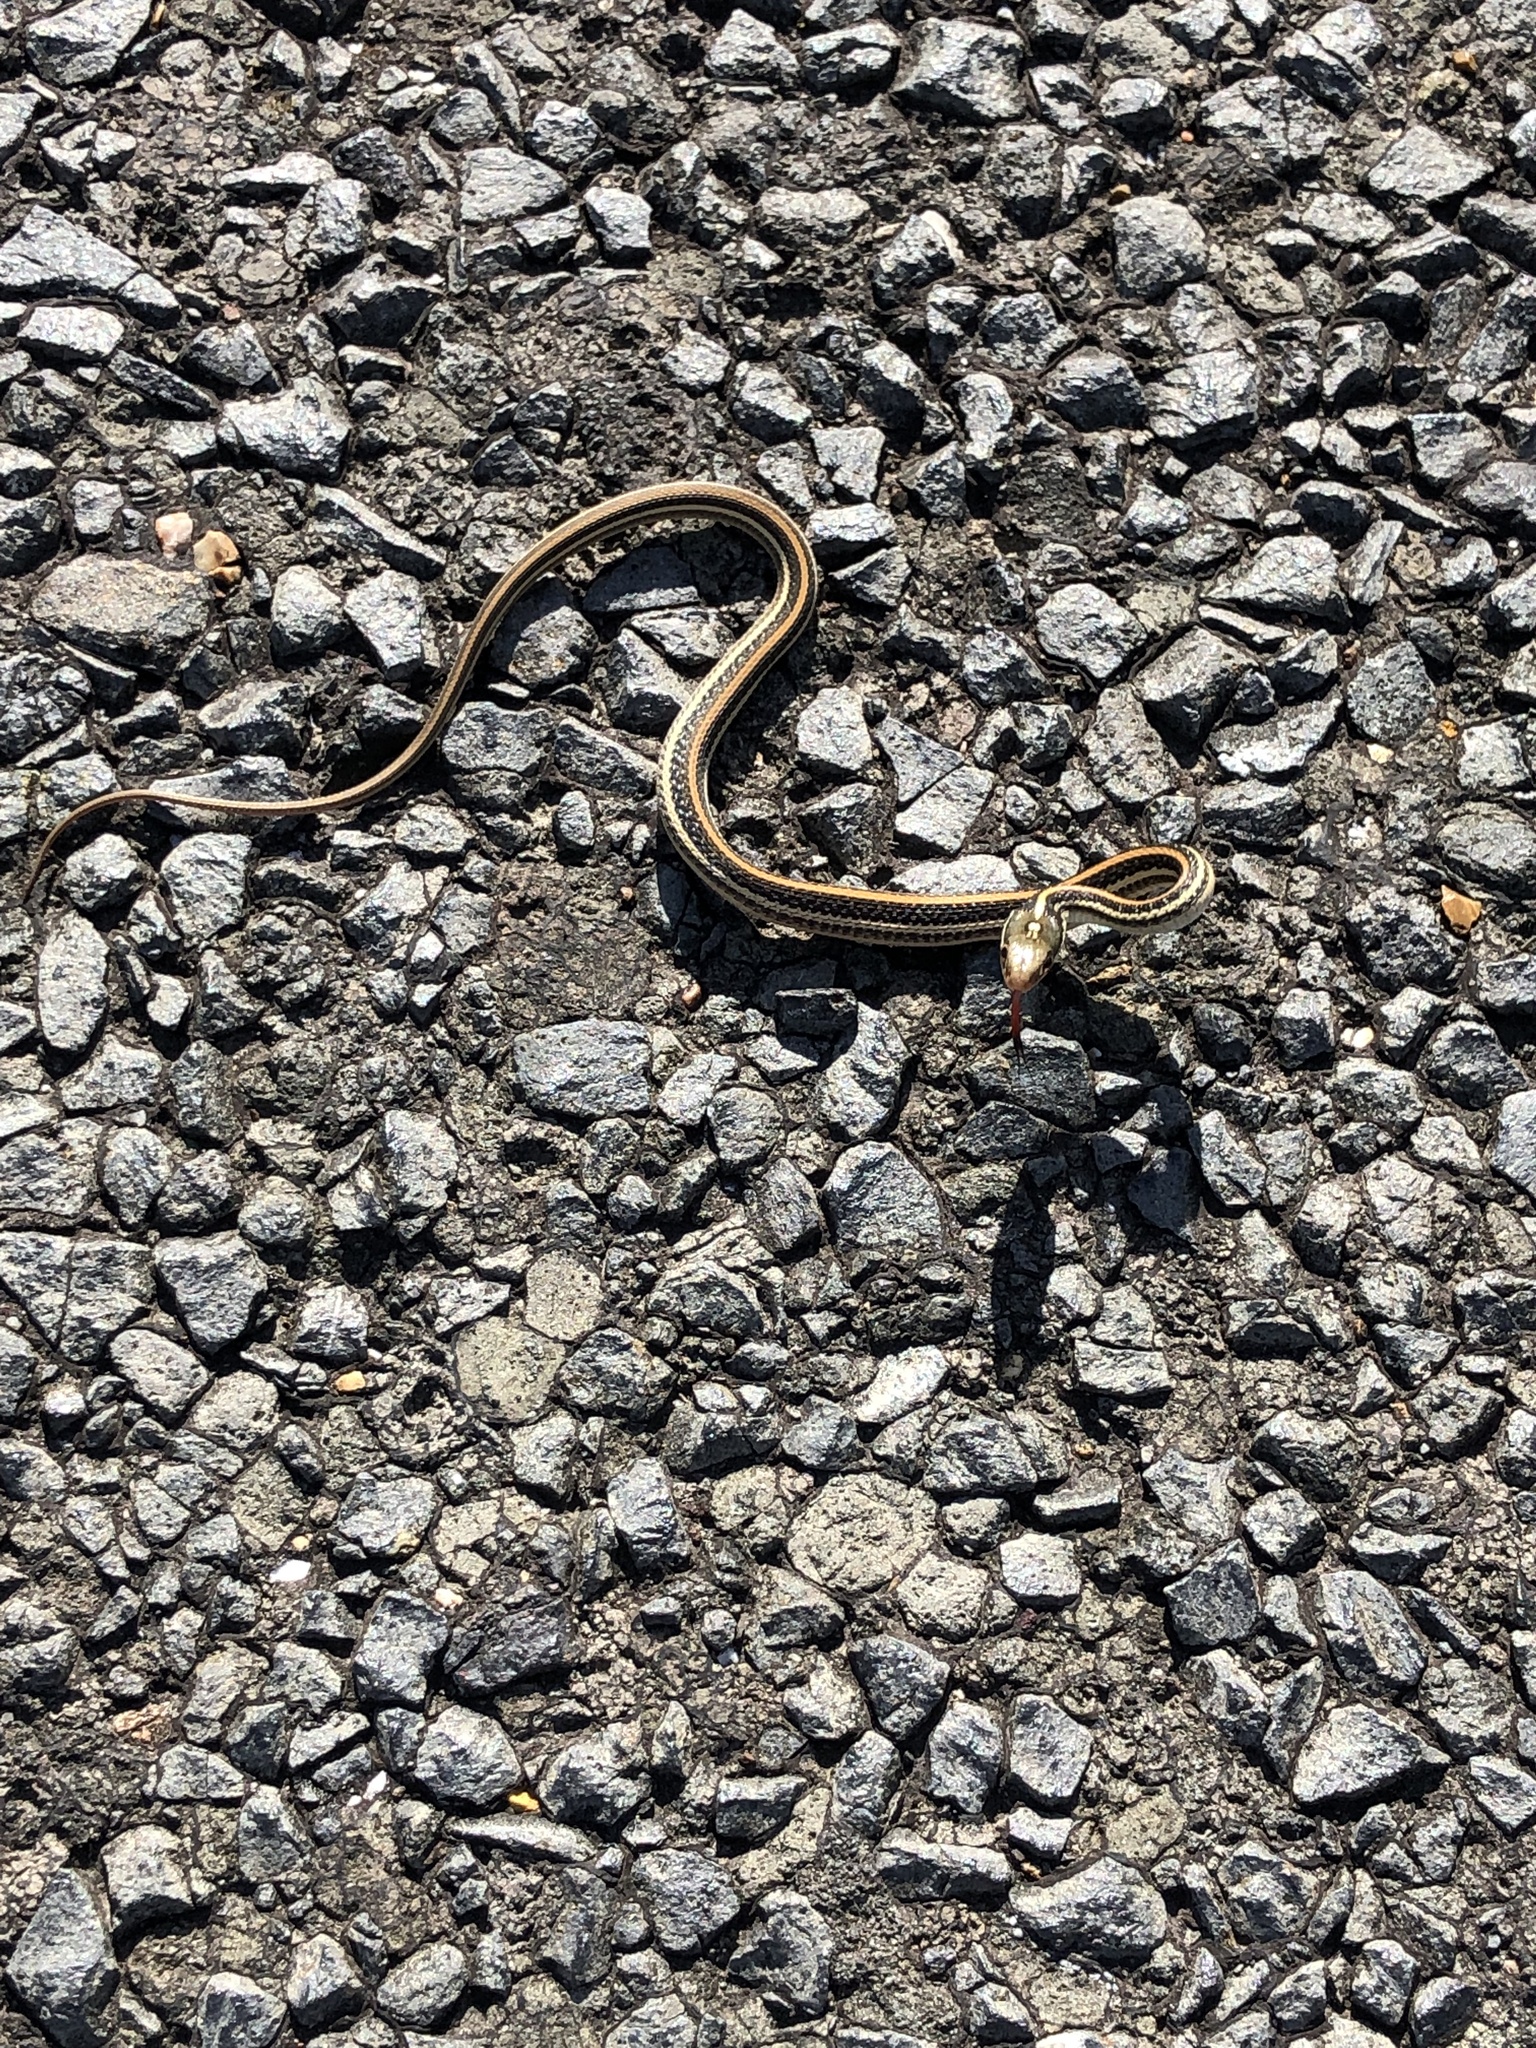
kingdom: Animalia
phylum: Chordata
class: Squamata
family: Colubridae
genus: Thamnophis
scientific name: Thamnophis proximus
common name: Western ribbon snake
